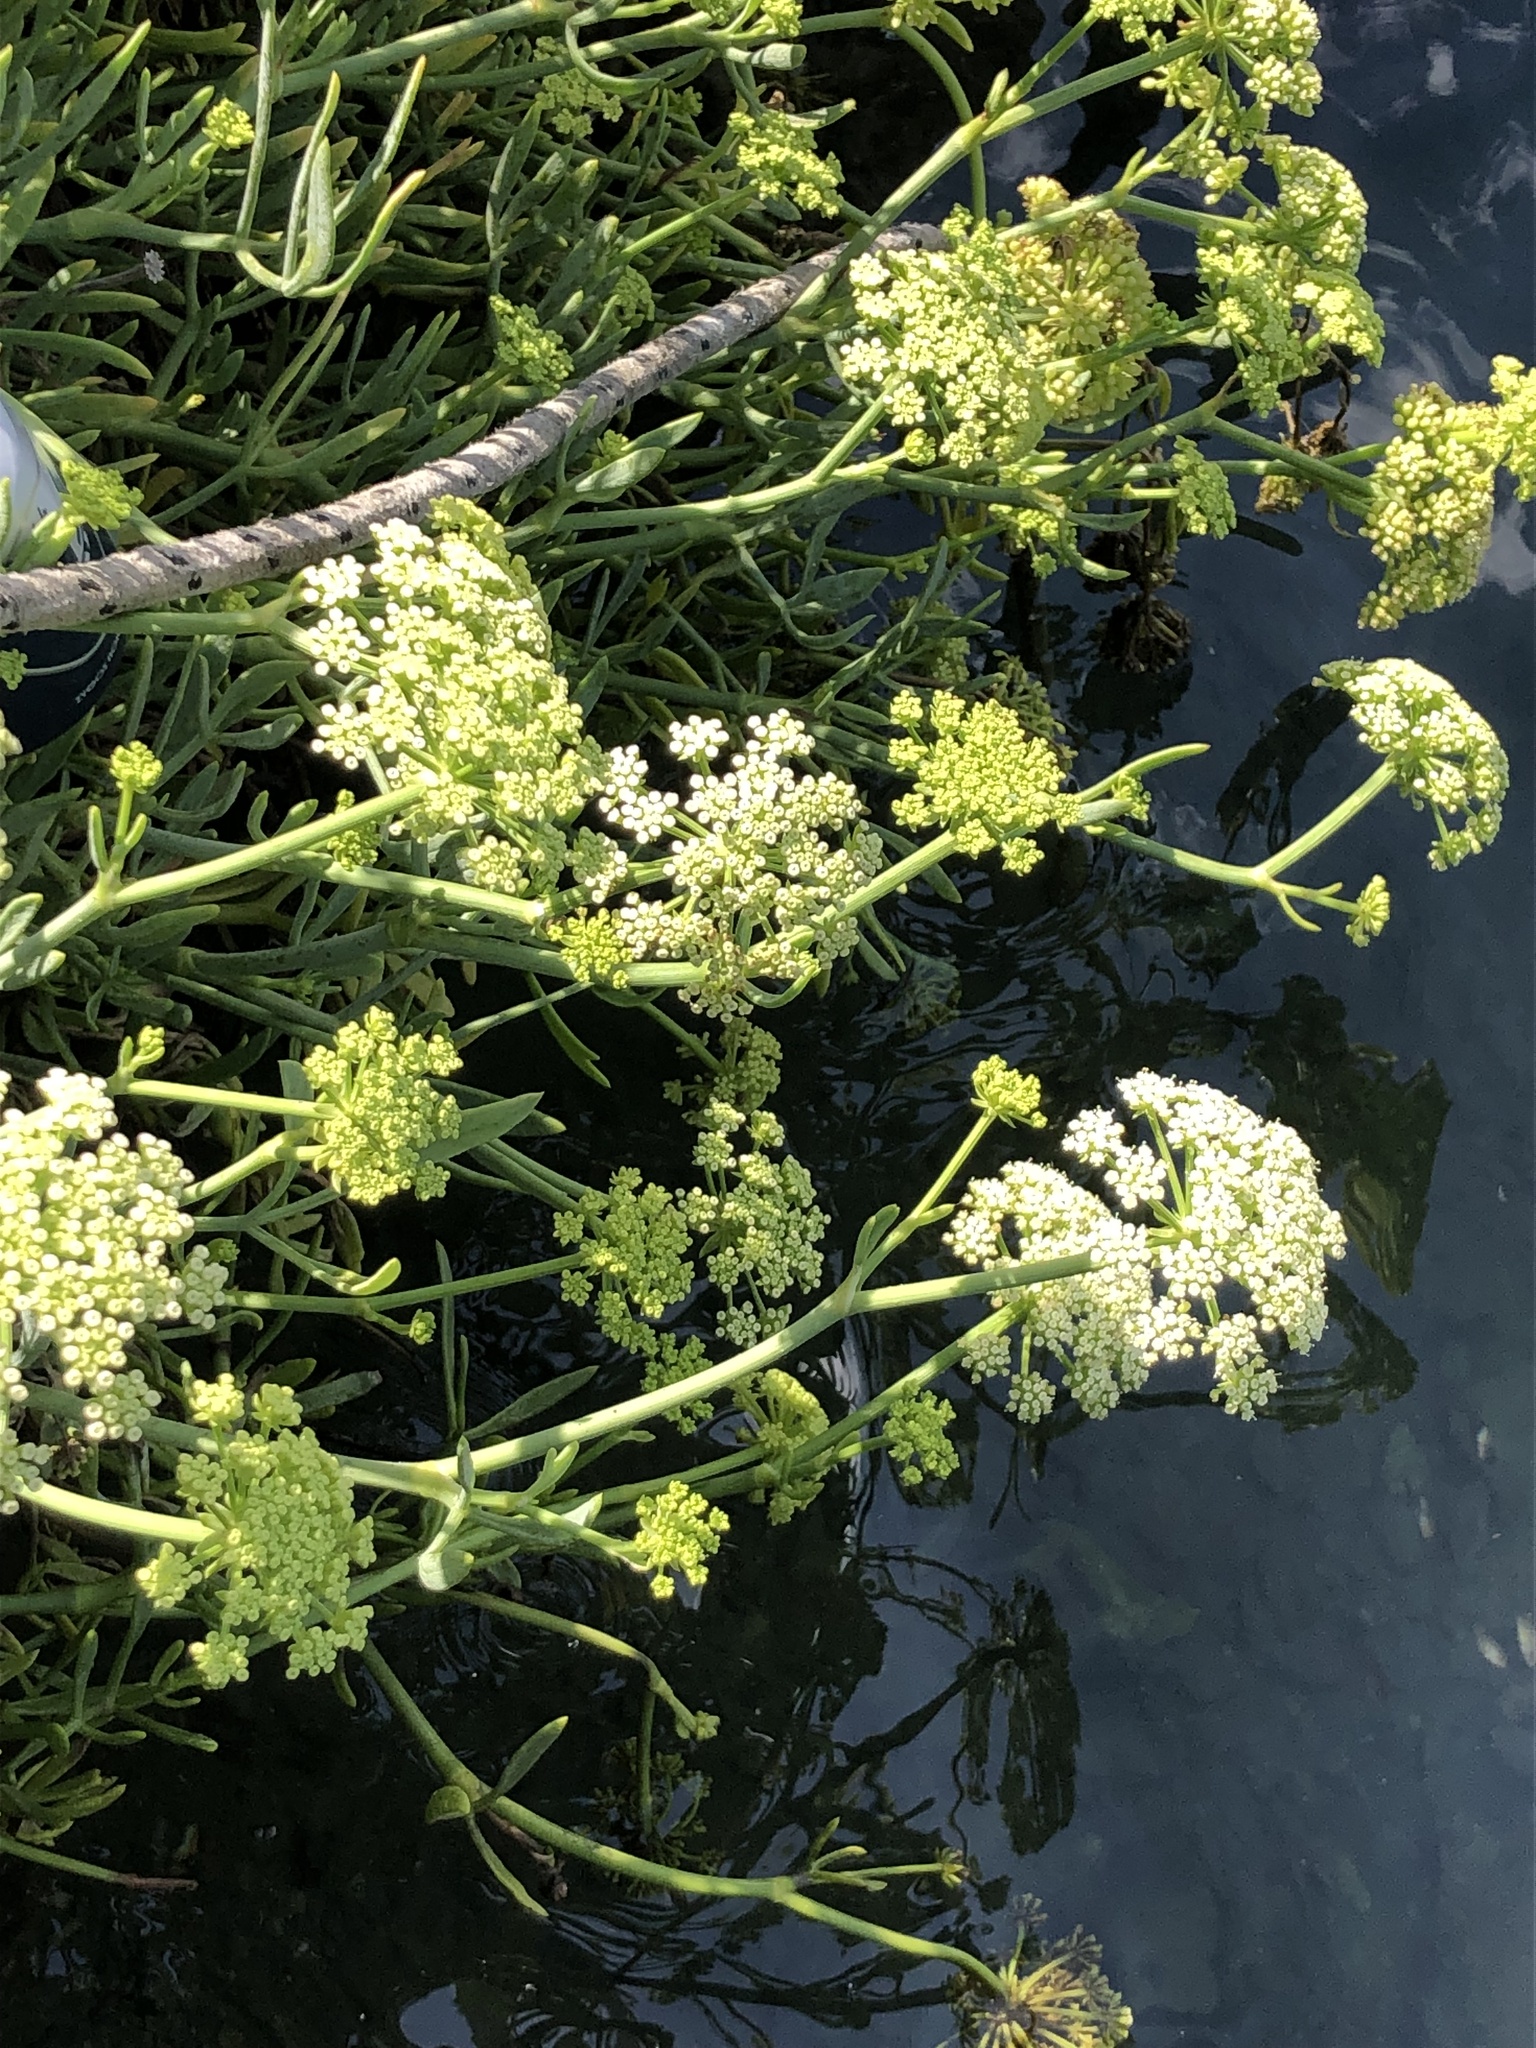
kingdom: Plantae
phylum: Tracheophyta
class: Magnoliopsida
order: Apiales
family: Apiaceae
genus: Crithmum
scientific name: Crithmum maritimum
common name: Rock samphire
